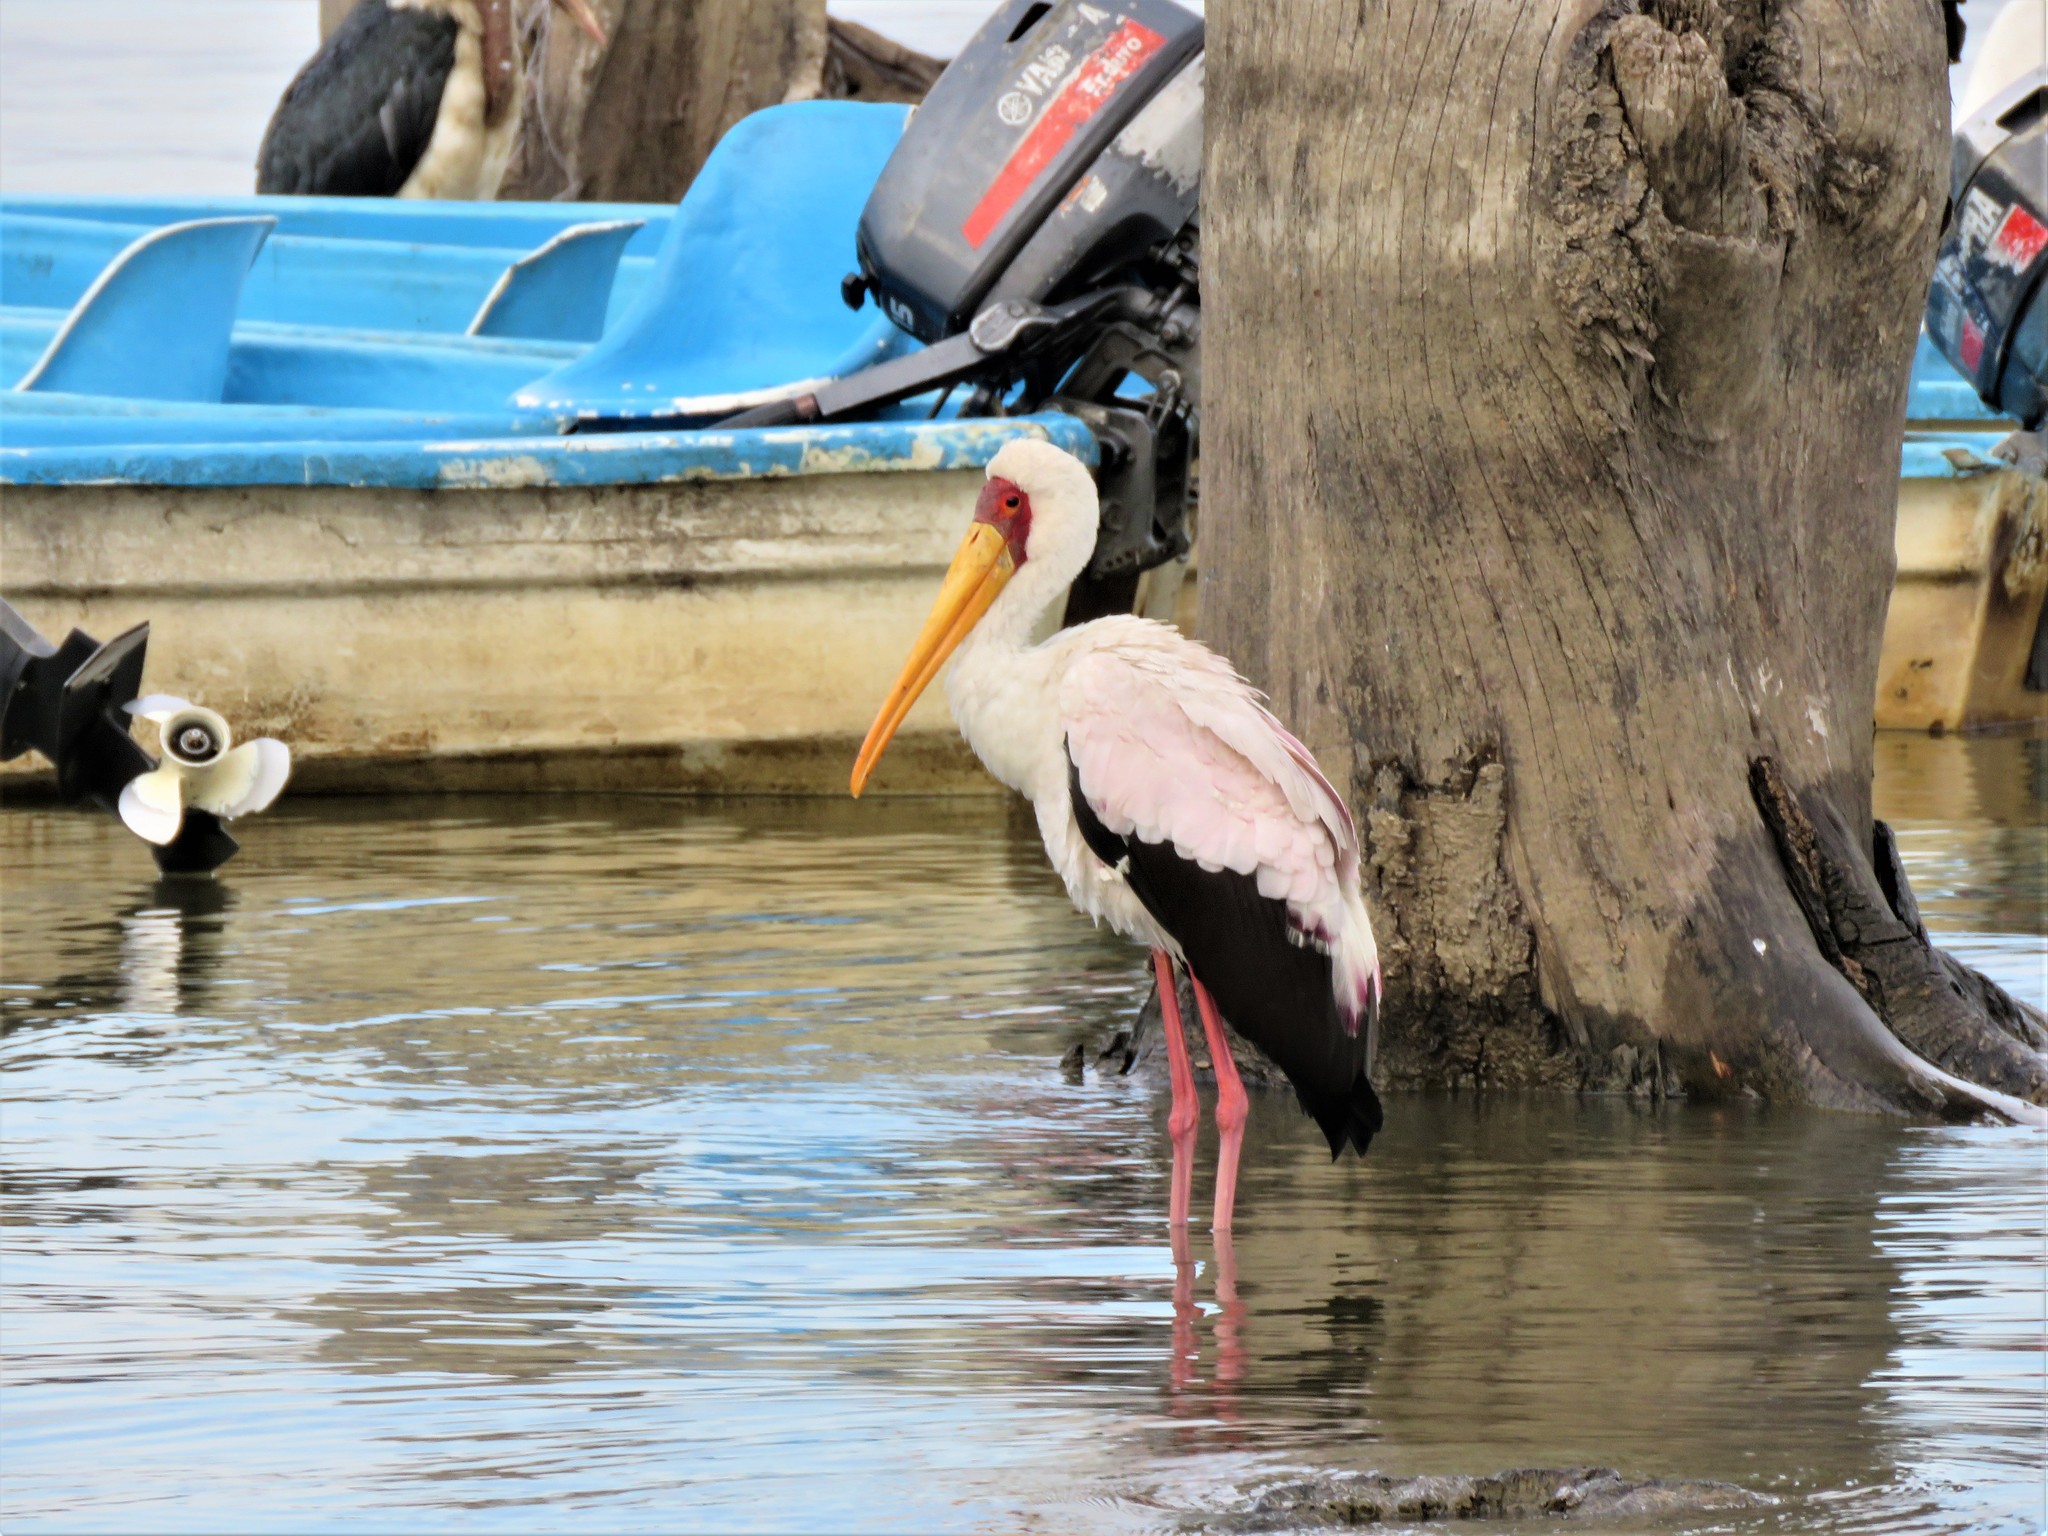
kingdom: Animalia
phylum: Chordata
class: Aves
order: Ciconiiformes
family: Ciconiidae
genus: Mycteria
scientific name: Mycteria ibis
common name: Yellow-billed stork
